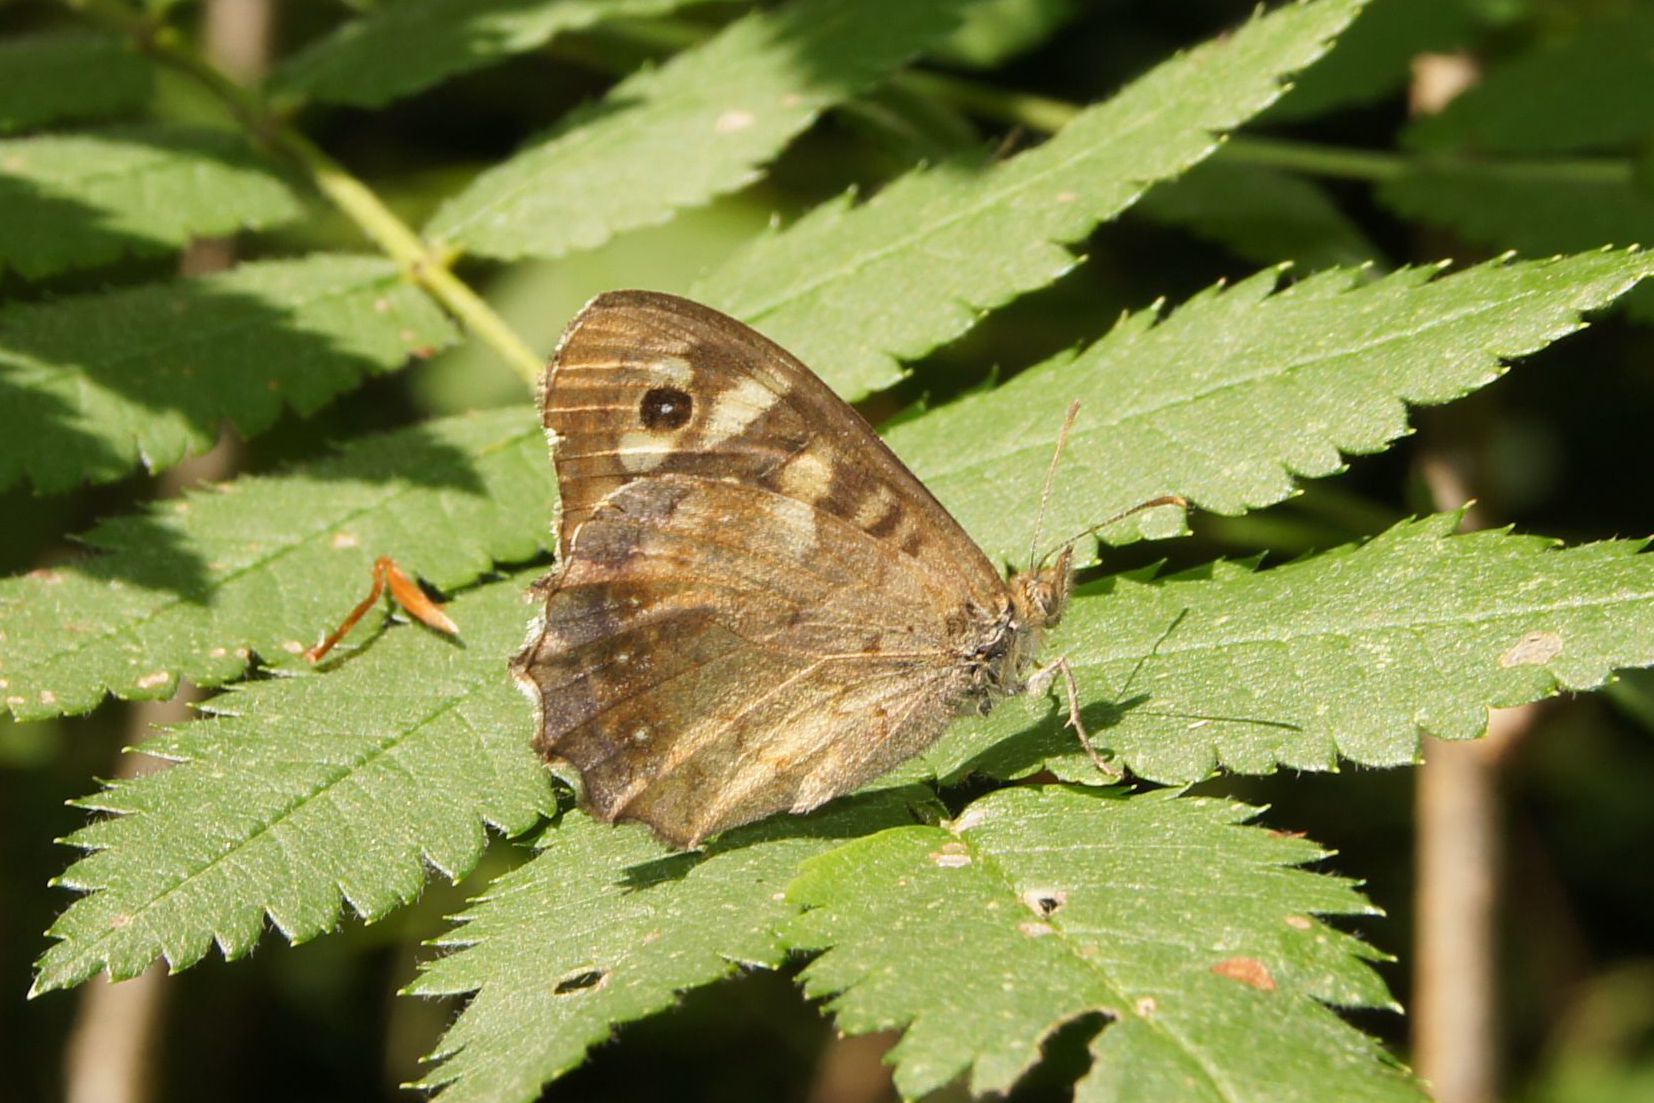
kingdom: Animalia
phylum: Arthropoda
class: Insecta
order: Lepidoptera
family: Nymphalidae
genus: Pararge
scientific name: Pararge aegeria
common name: Speckled wood
